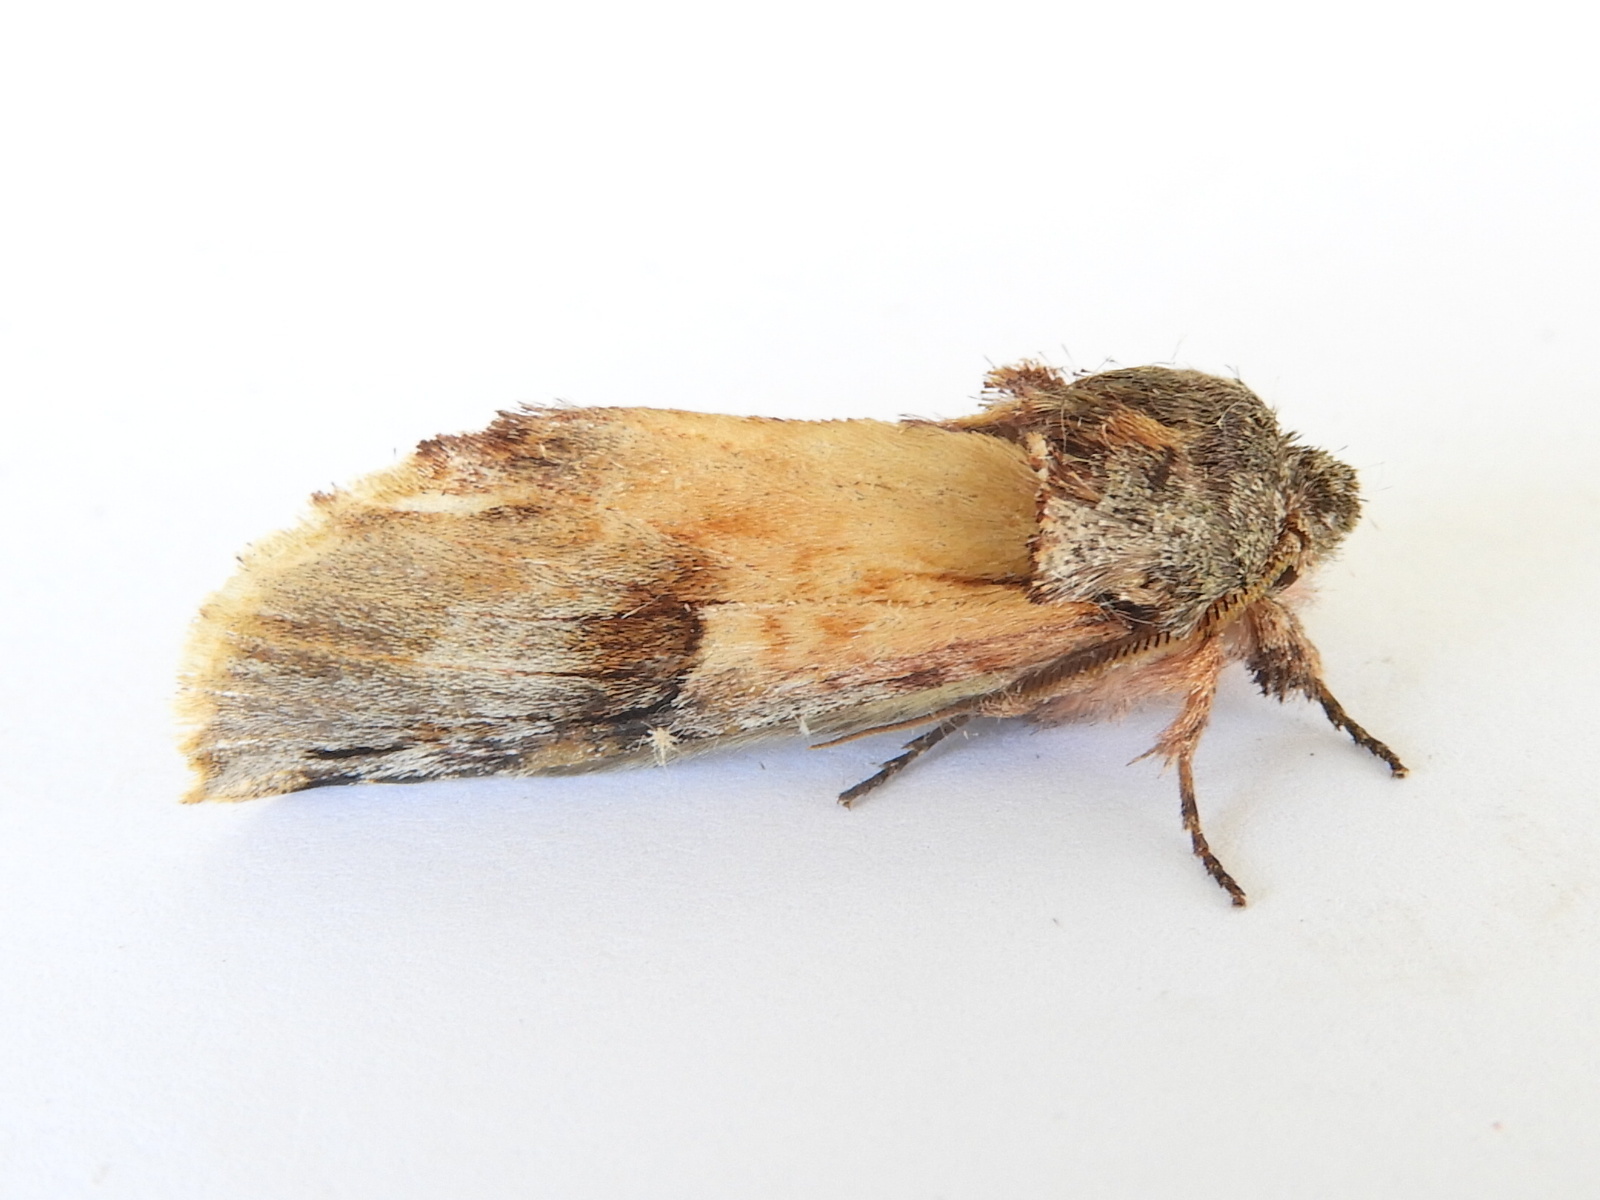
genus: Ianassa
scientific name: Ianassa
